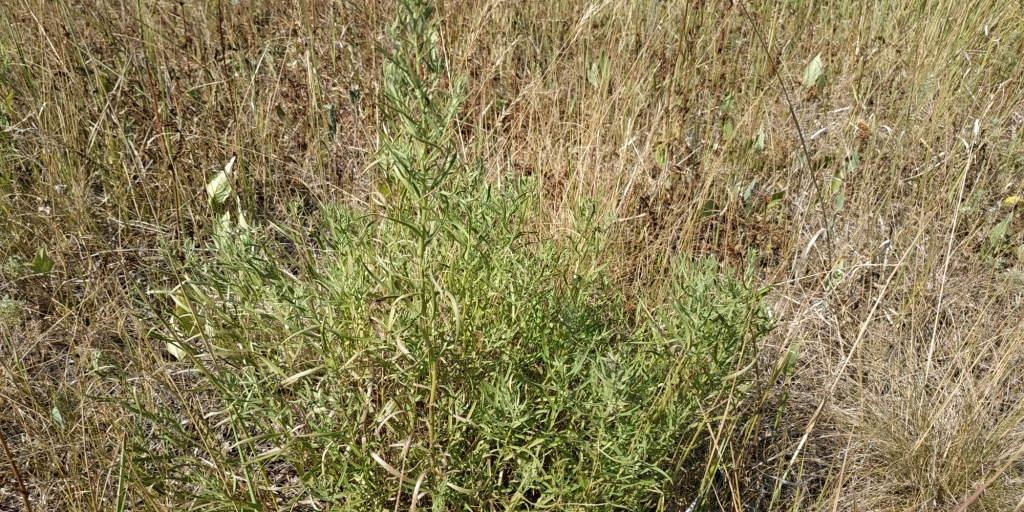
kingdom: Plantae
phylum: Tracheophyta
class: Magnoliopsida
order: Asterales
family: Asteraceae
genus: Artemisia
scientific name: Artemisia dracunculus
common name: Tarragon
